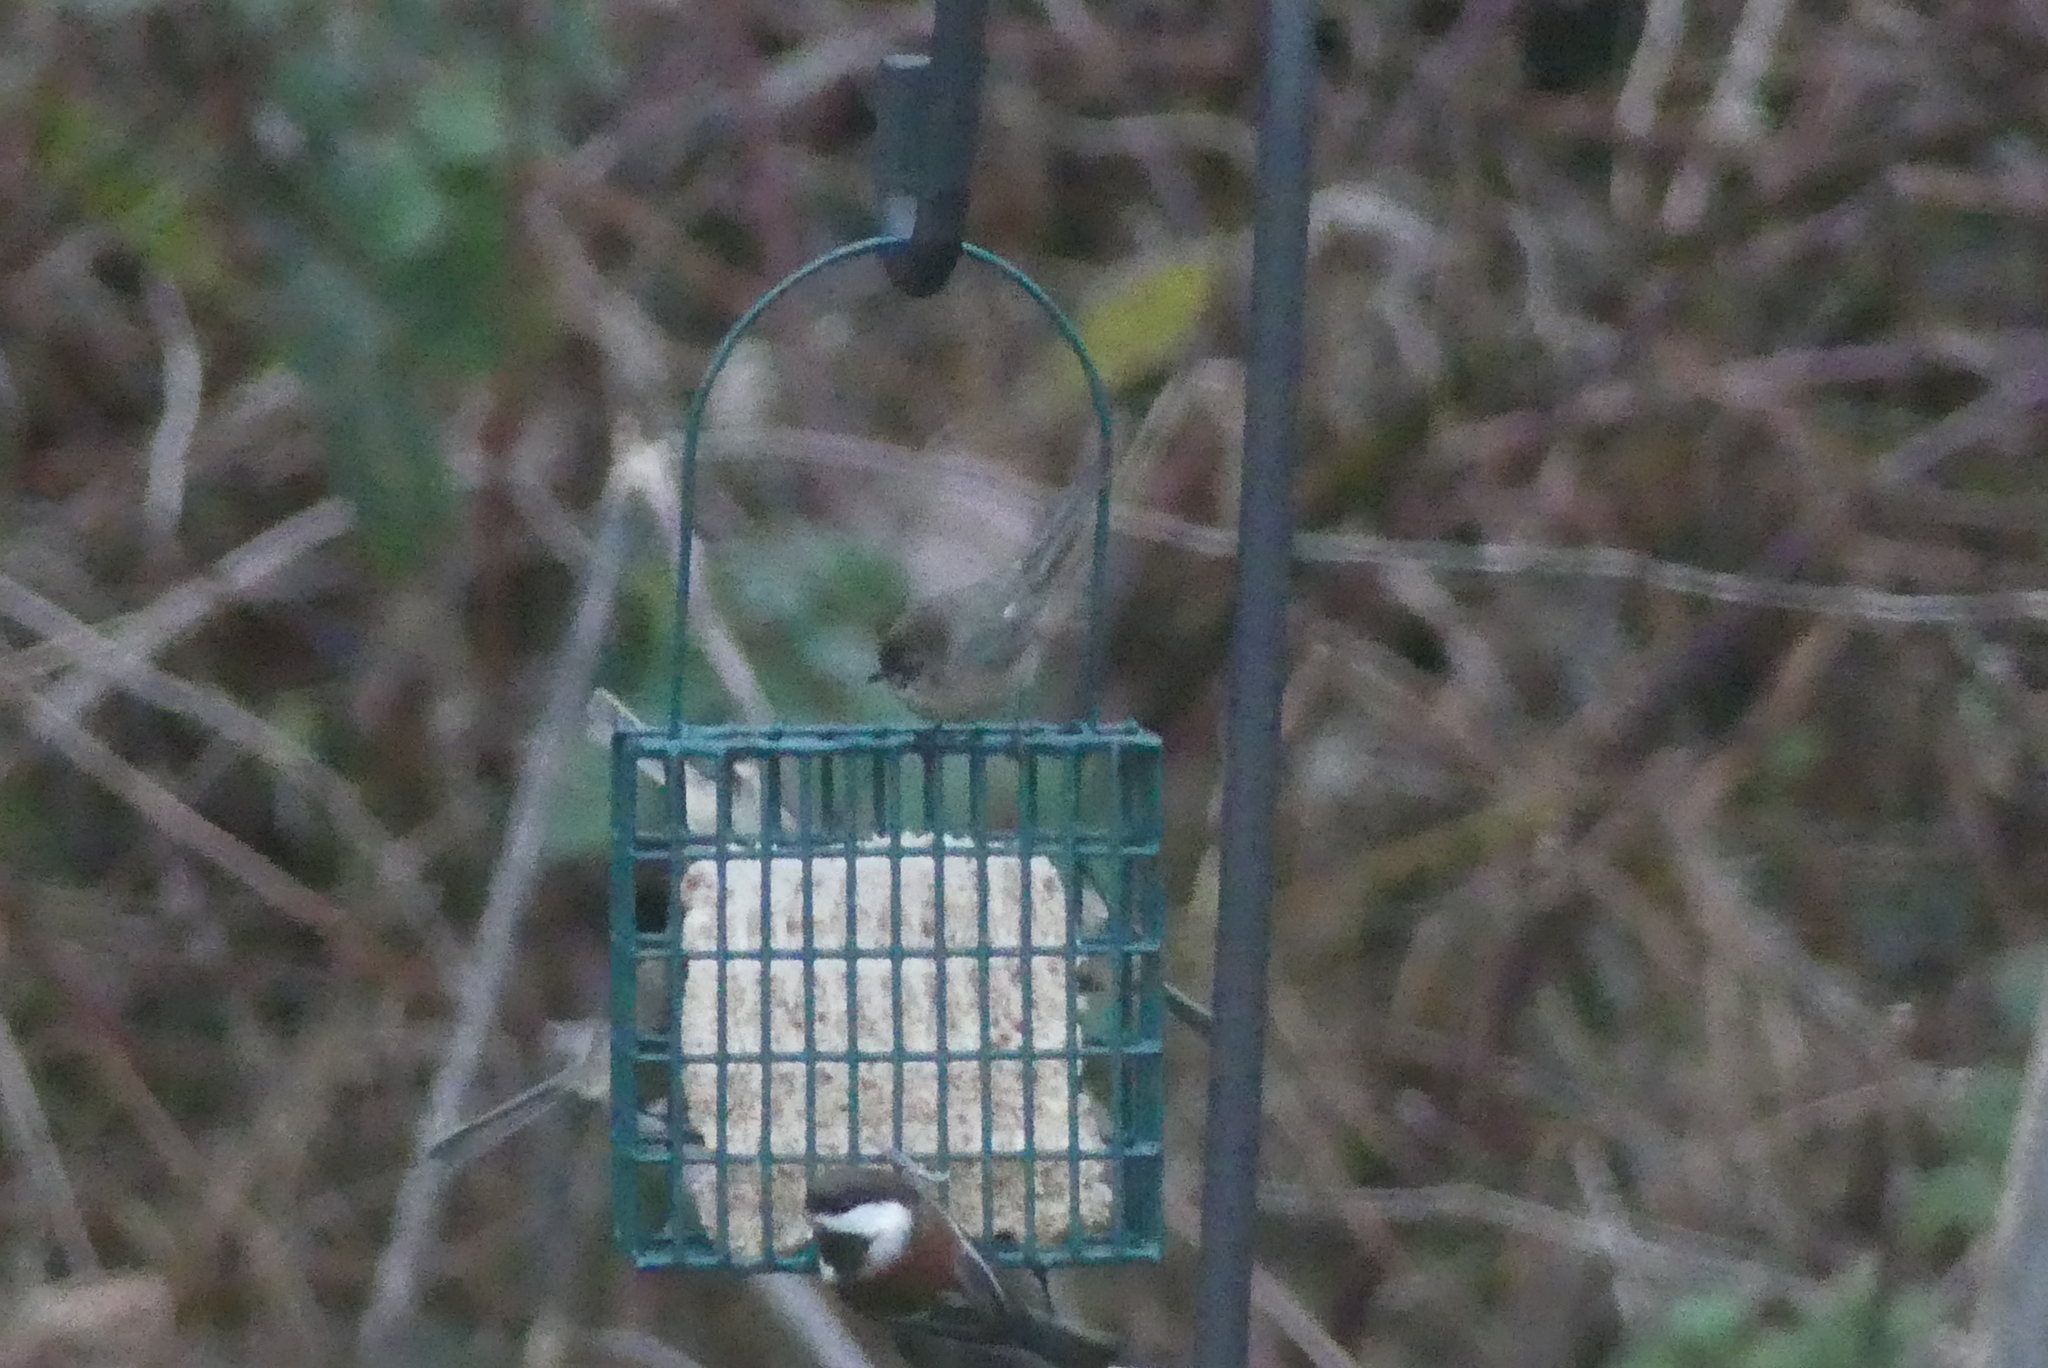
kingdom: Animalia
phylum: Chordata
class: Aves
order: Passeriformes
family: Aegithalidae
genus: Psaltriparus
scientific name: Psaltriparus minimus
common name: American bushtit
